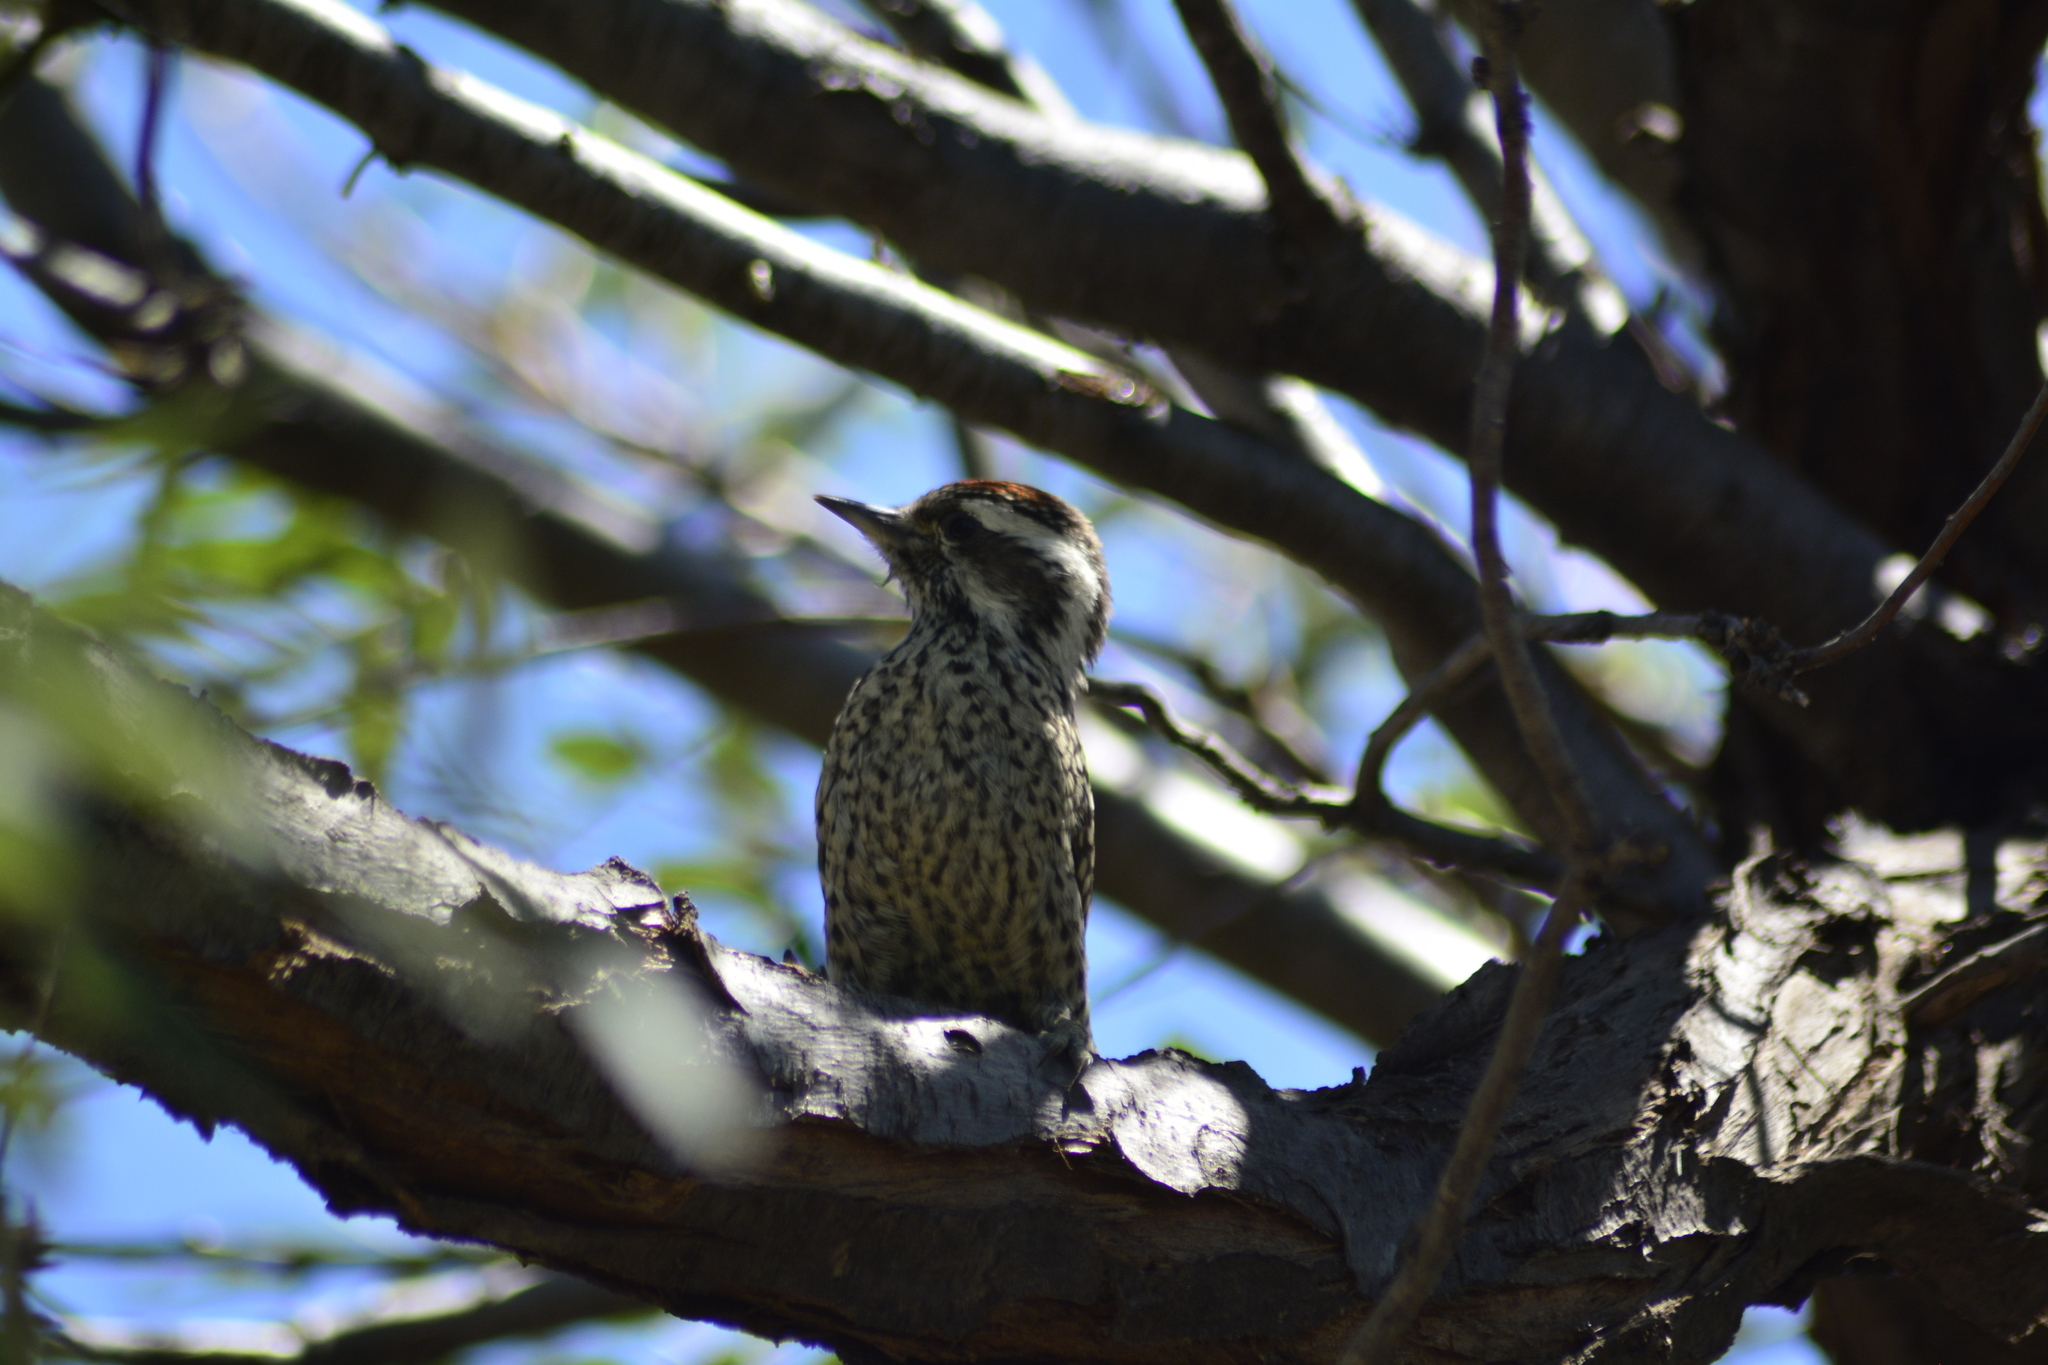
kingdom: Animalia
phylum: Chordata
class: Aves
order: Piciformes
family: Picidae
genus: Veniliornis
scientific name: Veniliornis mixtus
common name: Checkered woodpecker
